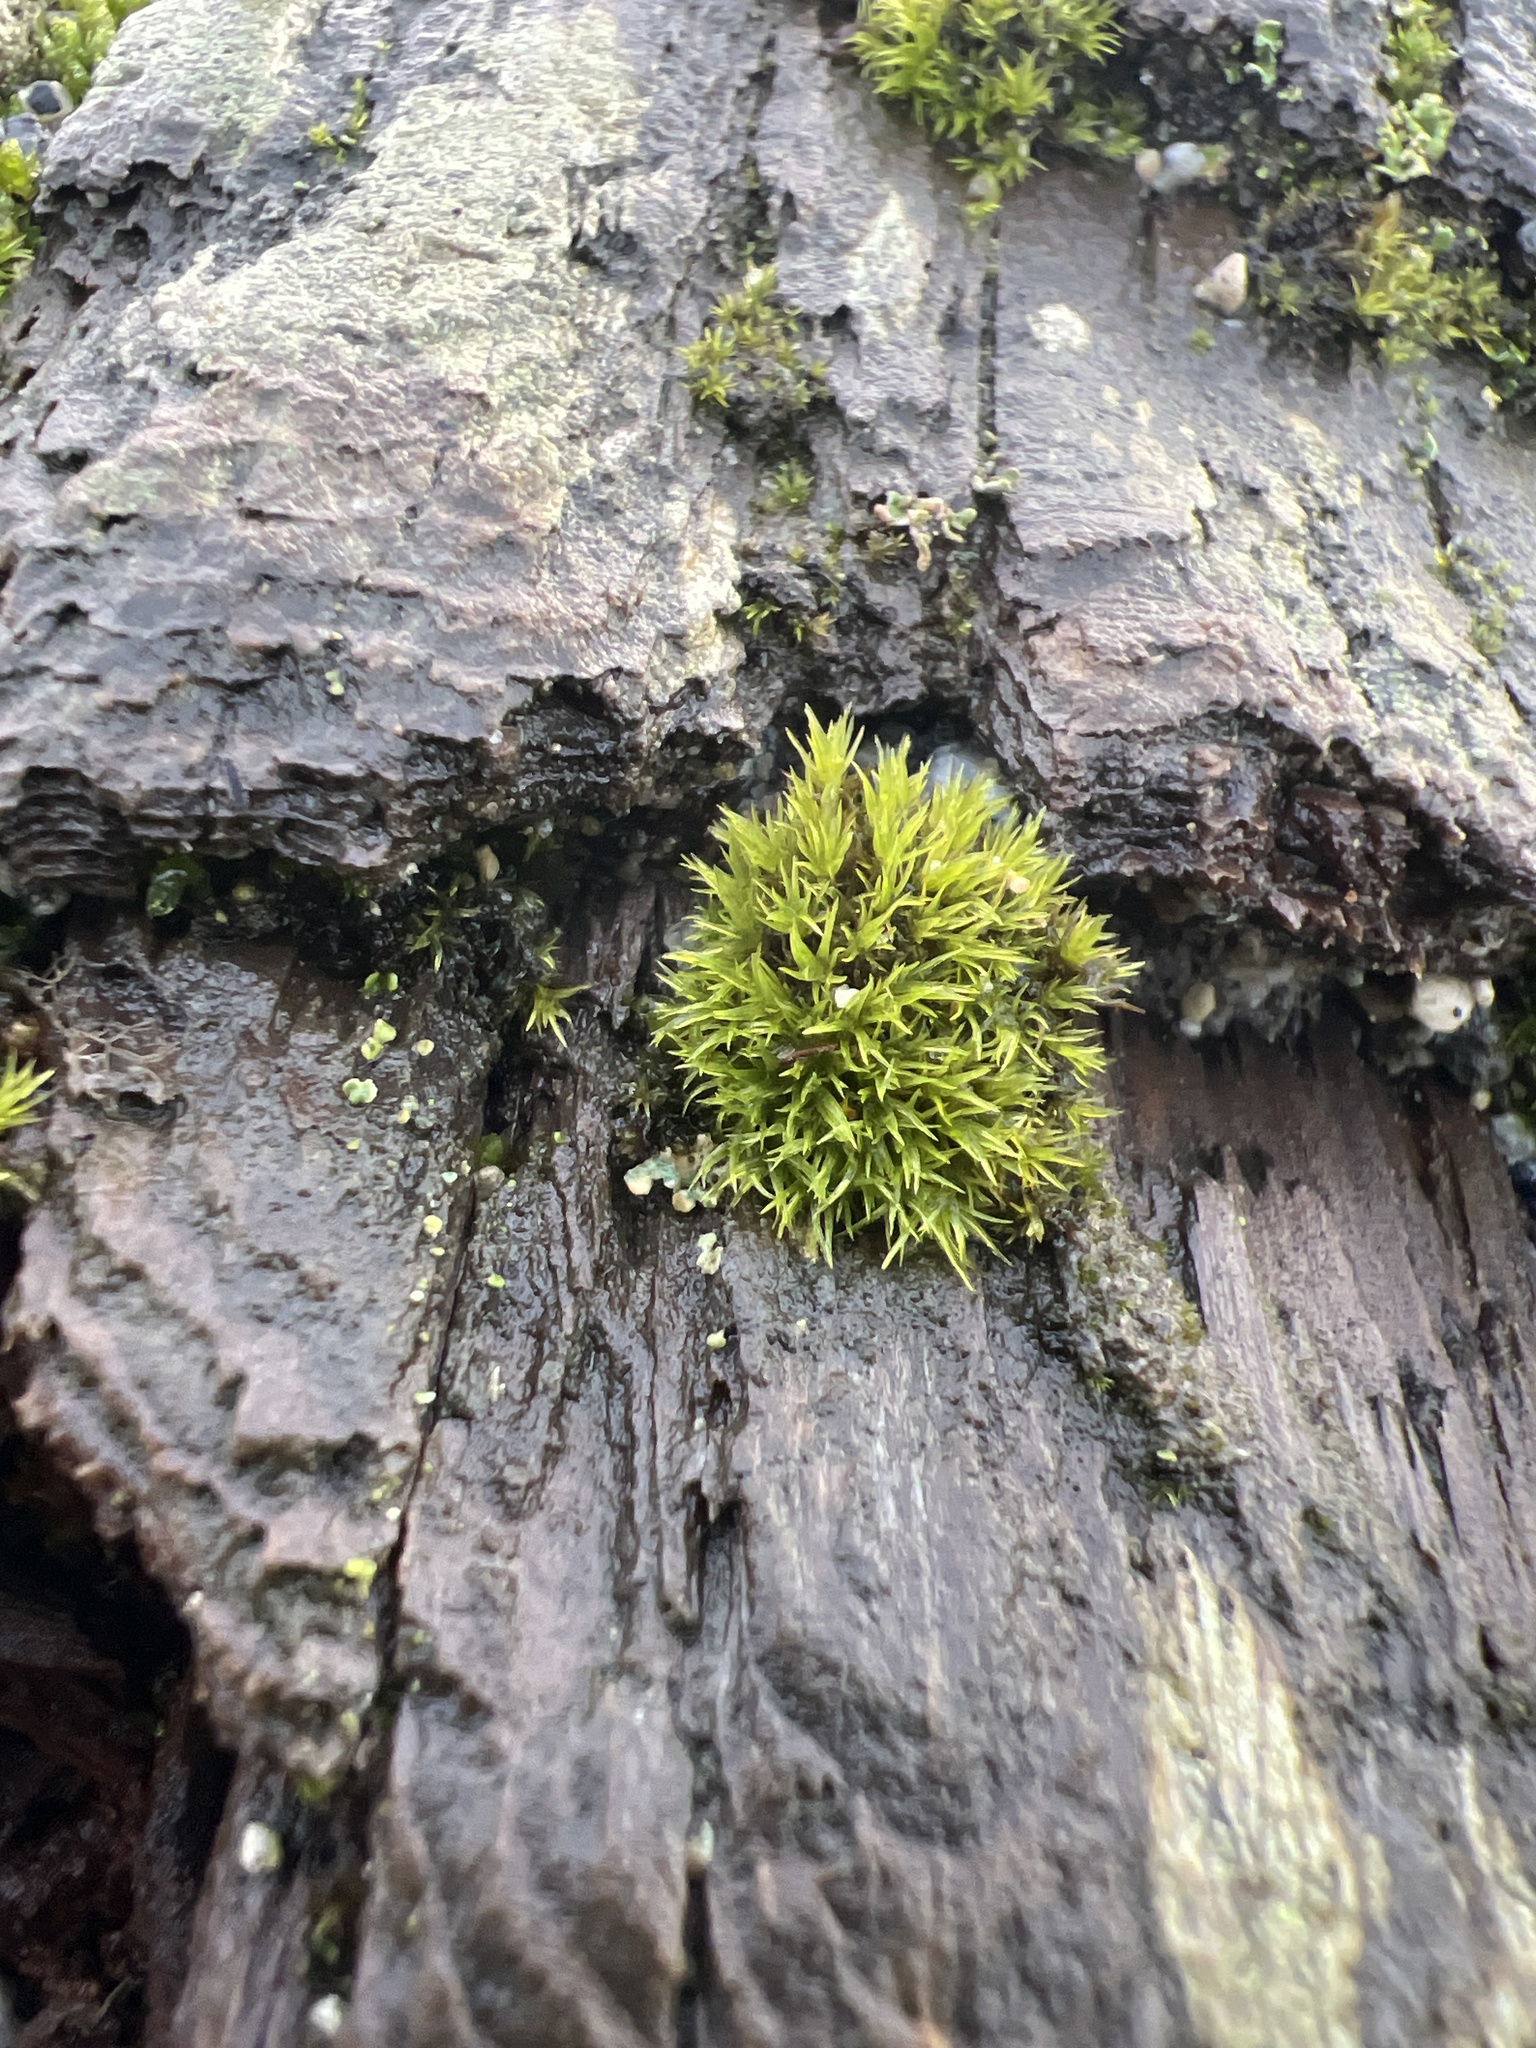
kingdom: Plantae
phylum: Bryophyta
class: Bryopsida
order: Dicranales
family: Dicranaceae
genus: Orthodicranum
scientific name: Orthodicranum tauricum
